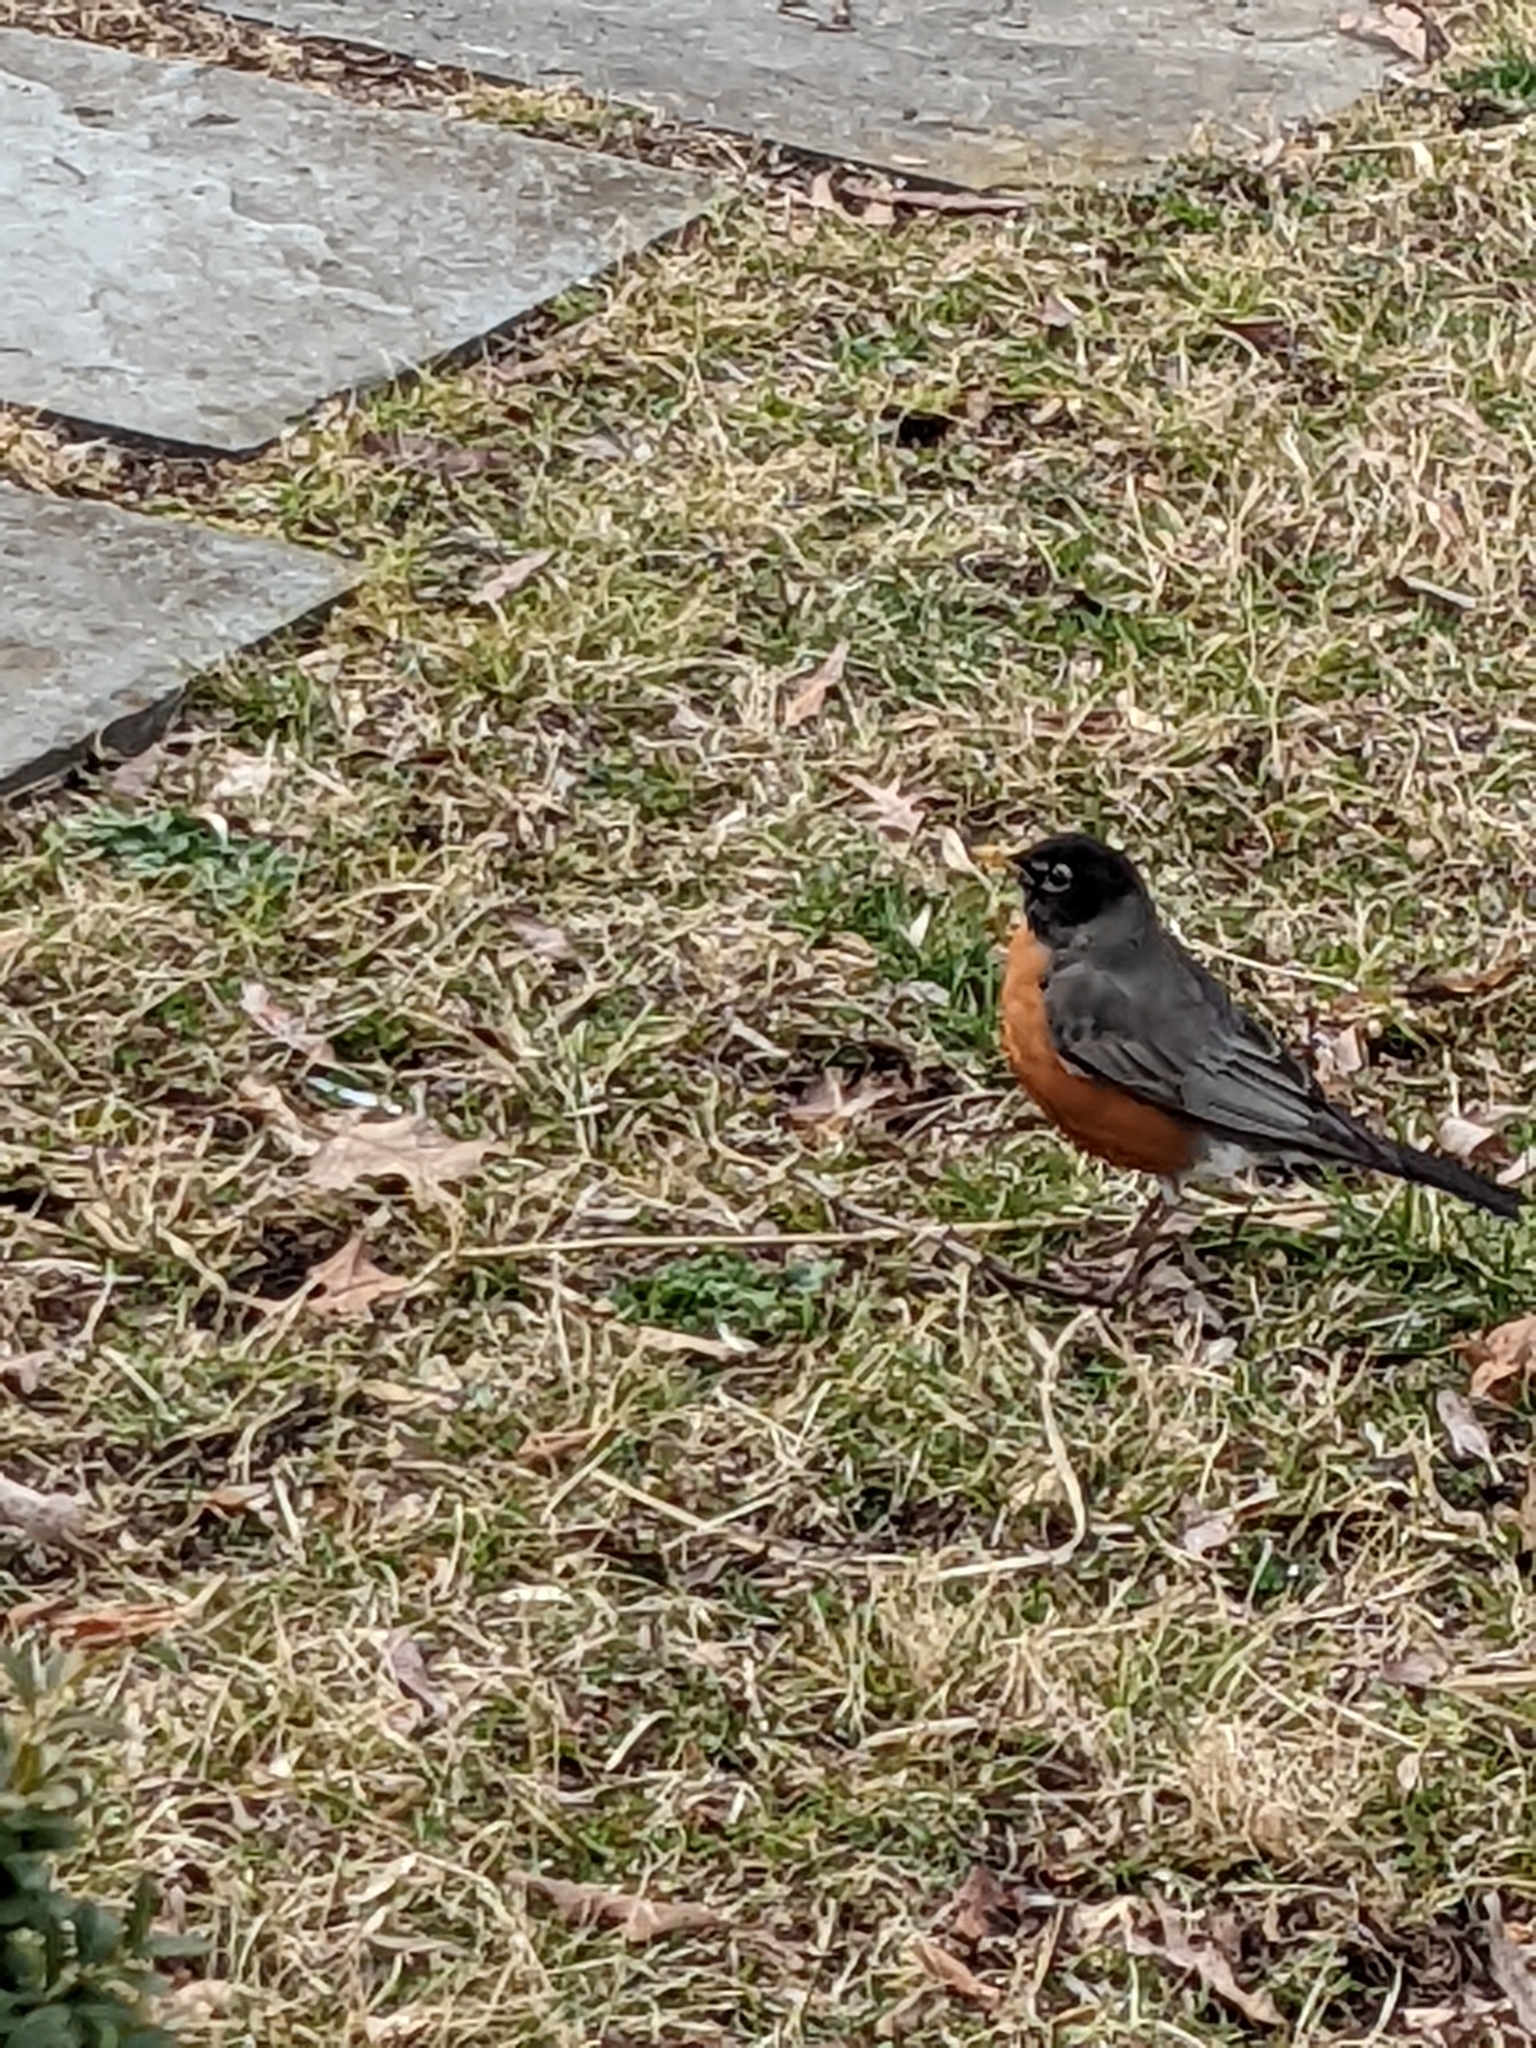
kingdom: Animalia
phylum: Chordata
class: Aves
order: Passeriformes
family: Turdidae
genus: Turdus
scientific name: Turdus migratorius
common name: American robin
